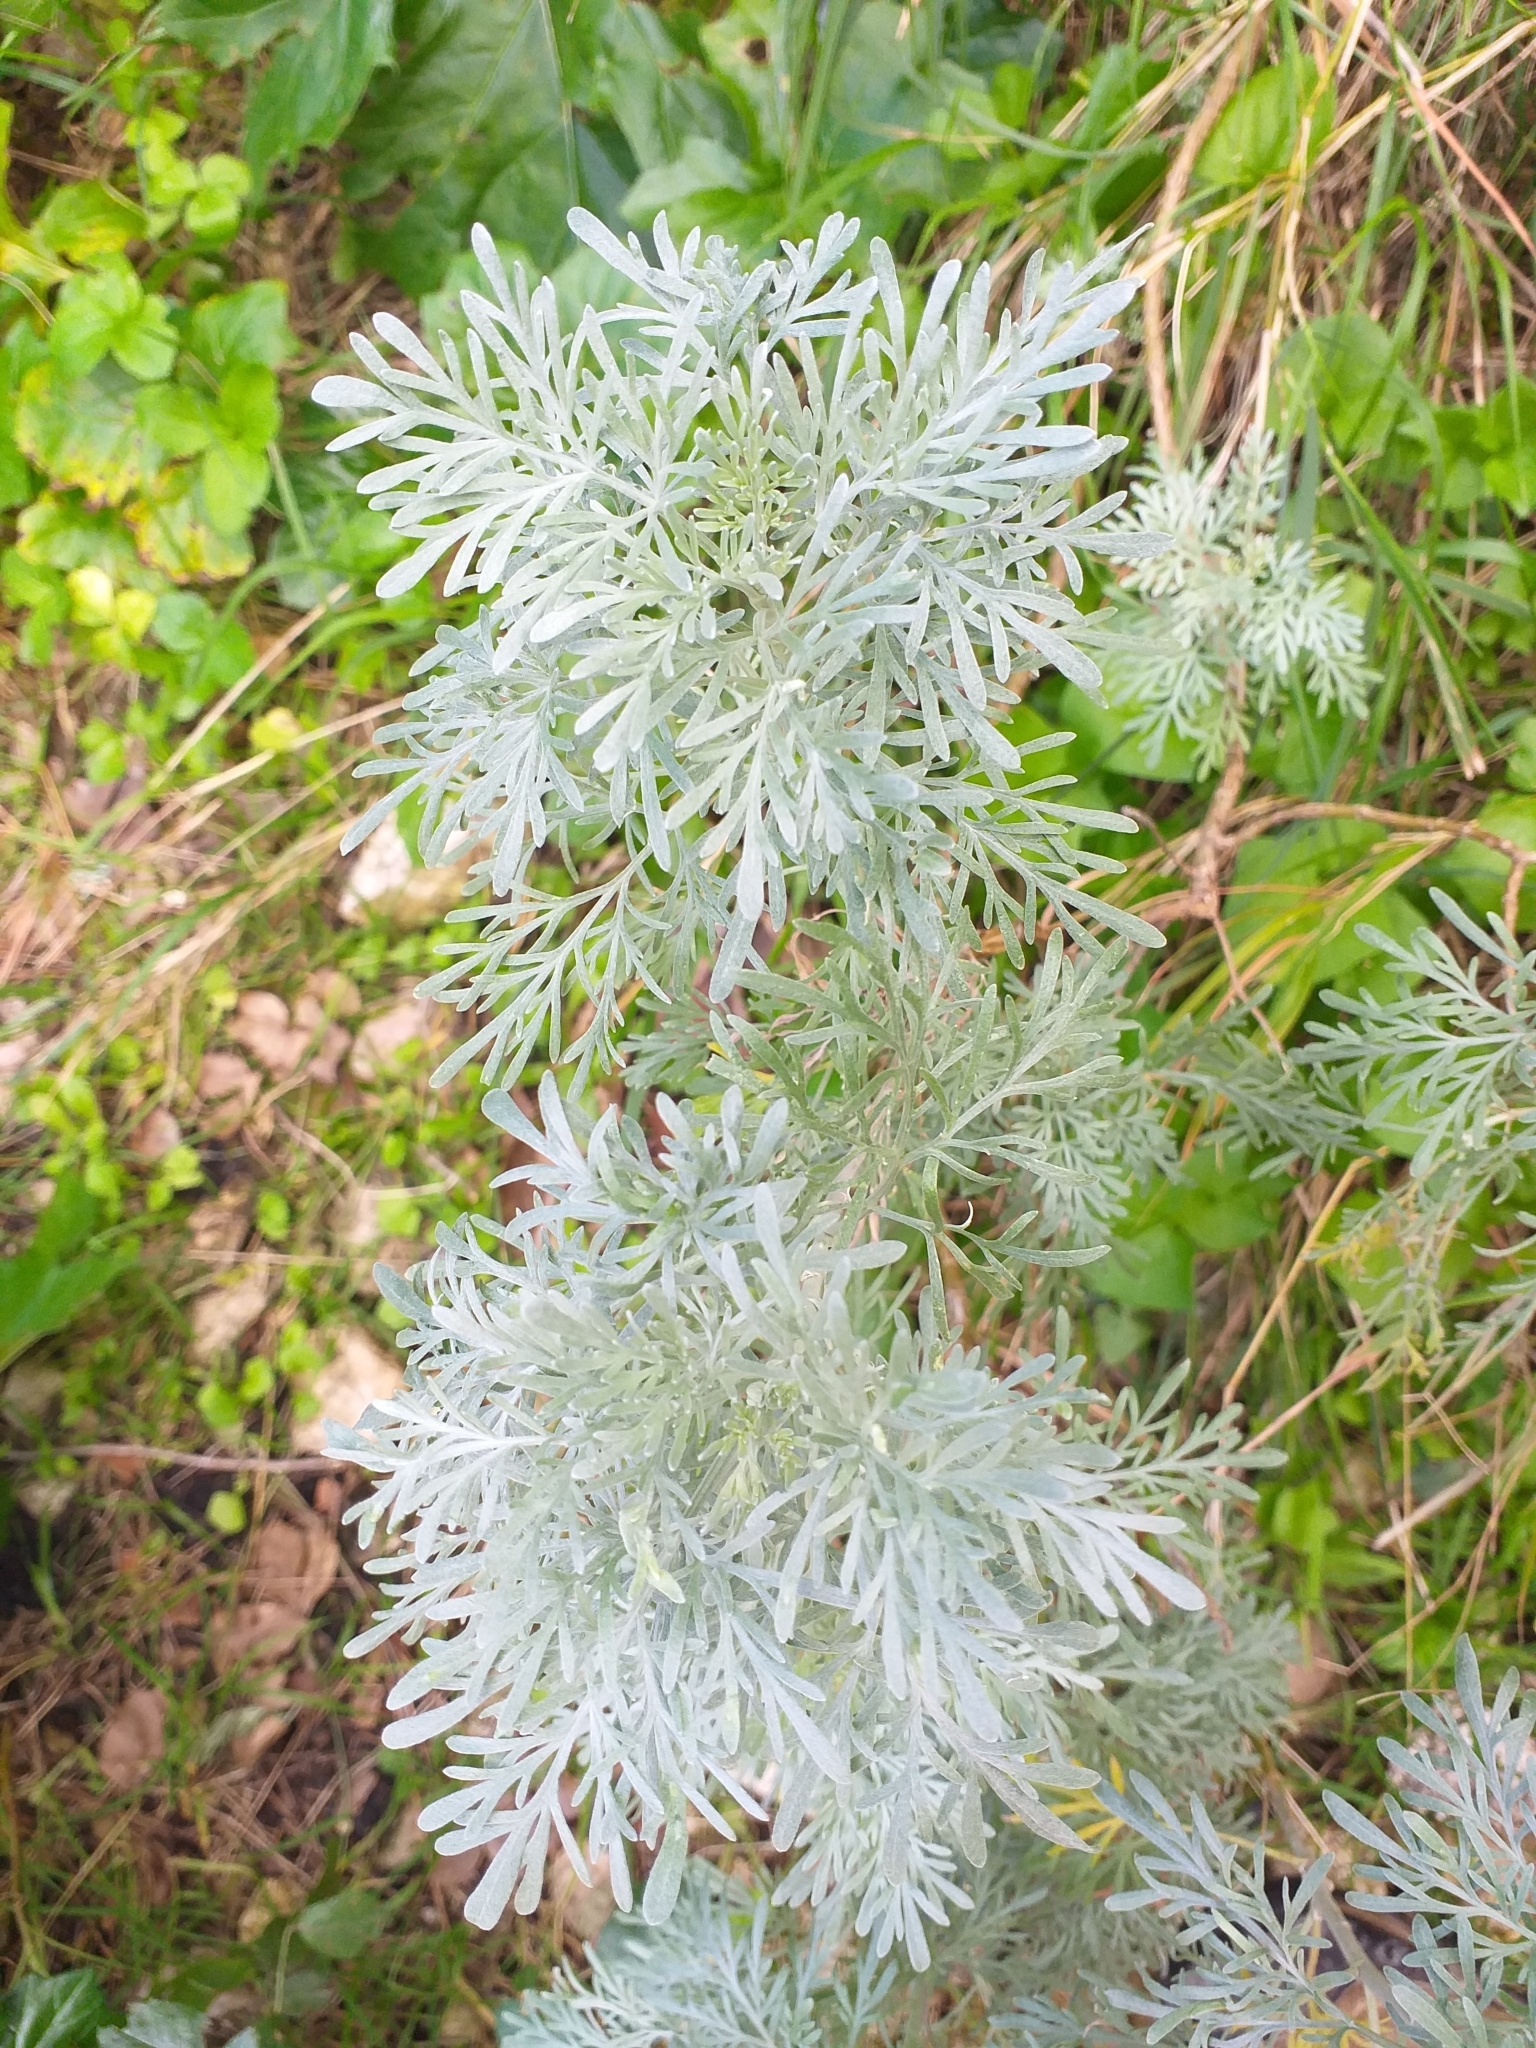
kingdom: Plantae
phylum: Tracheophyta
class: Magnoliopsida
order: Asterales
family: Asteraceae
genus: Artemisia
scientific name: Artemisia arborescens
